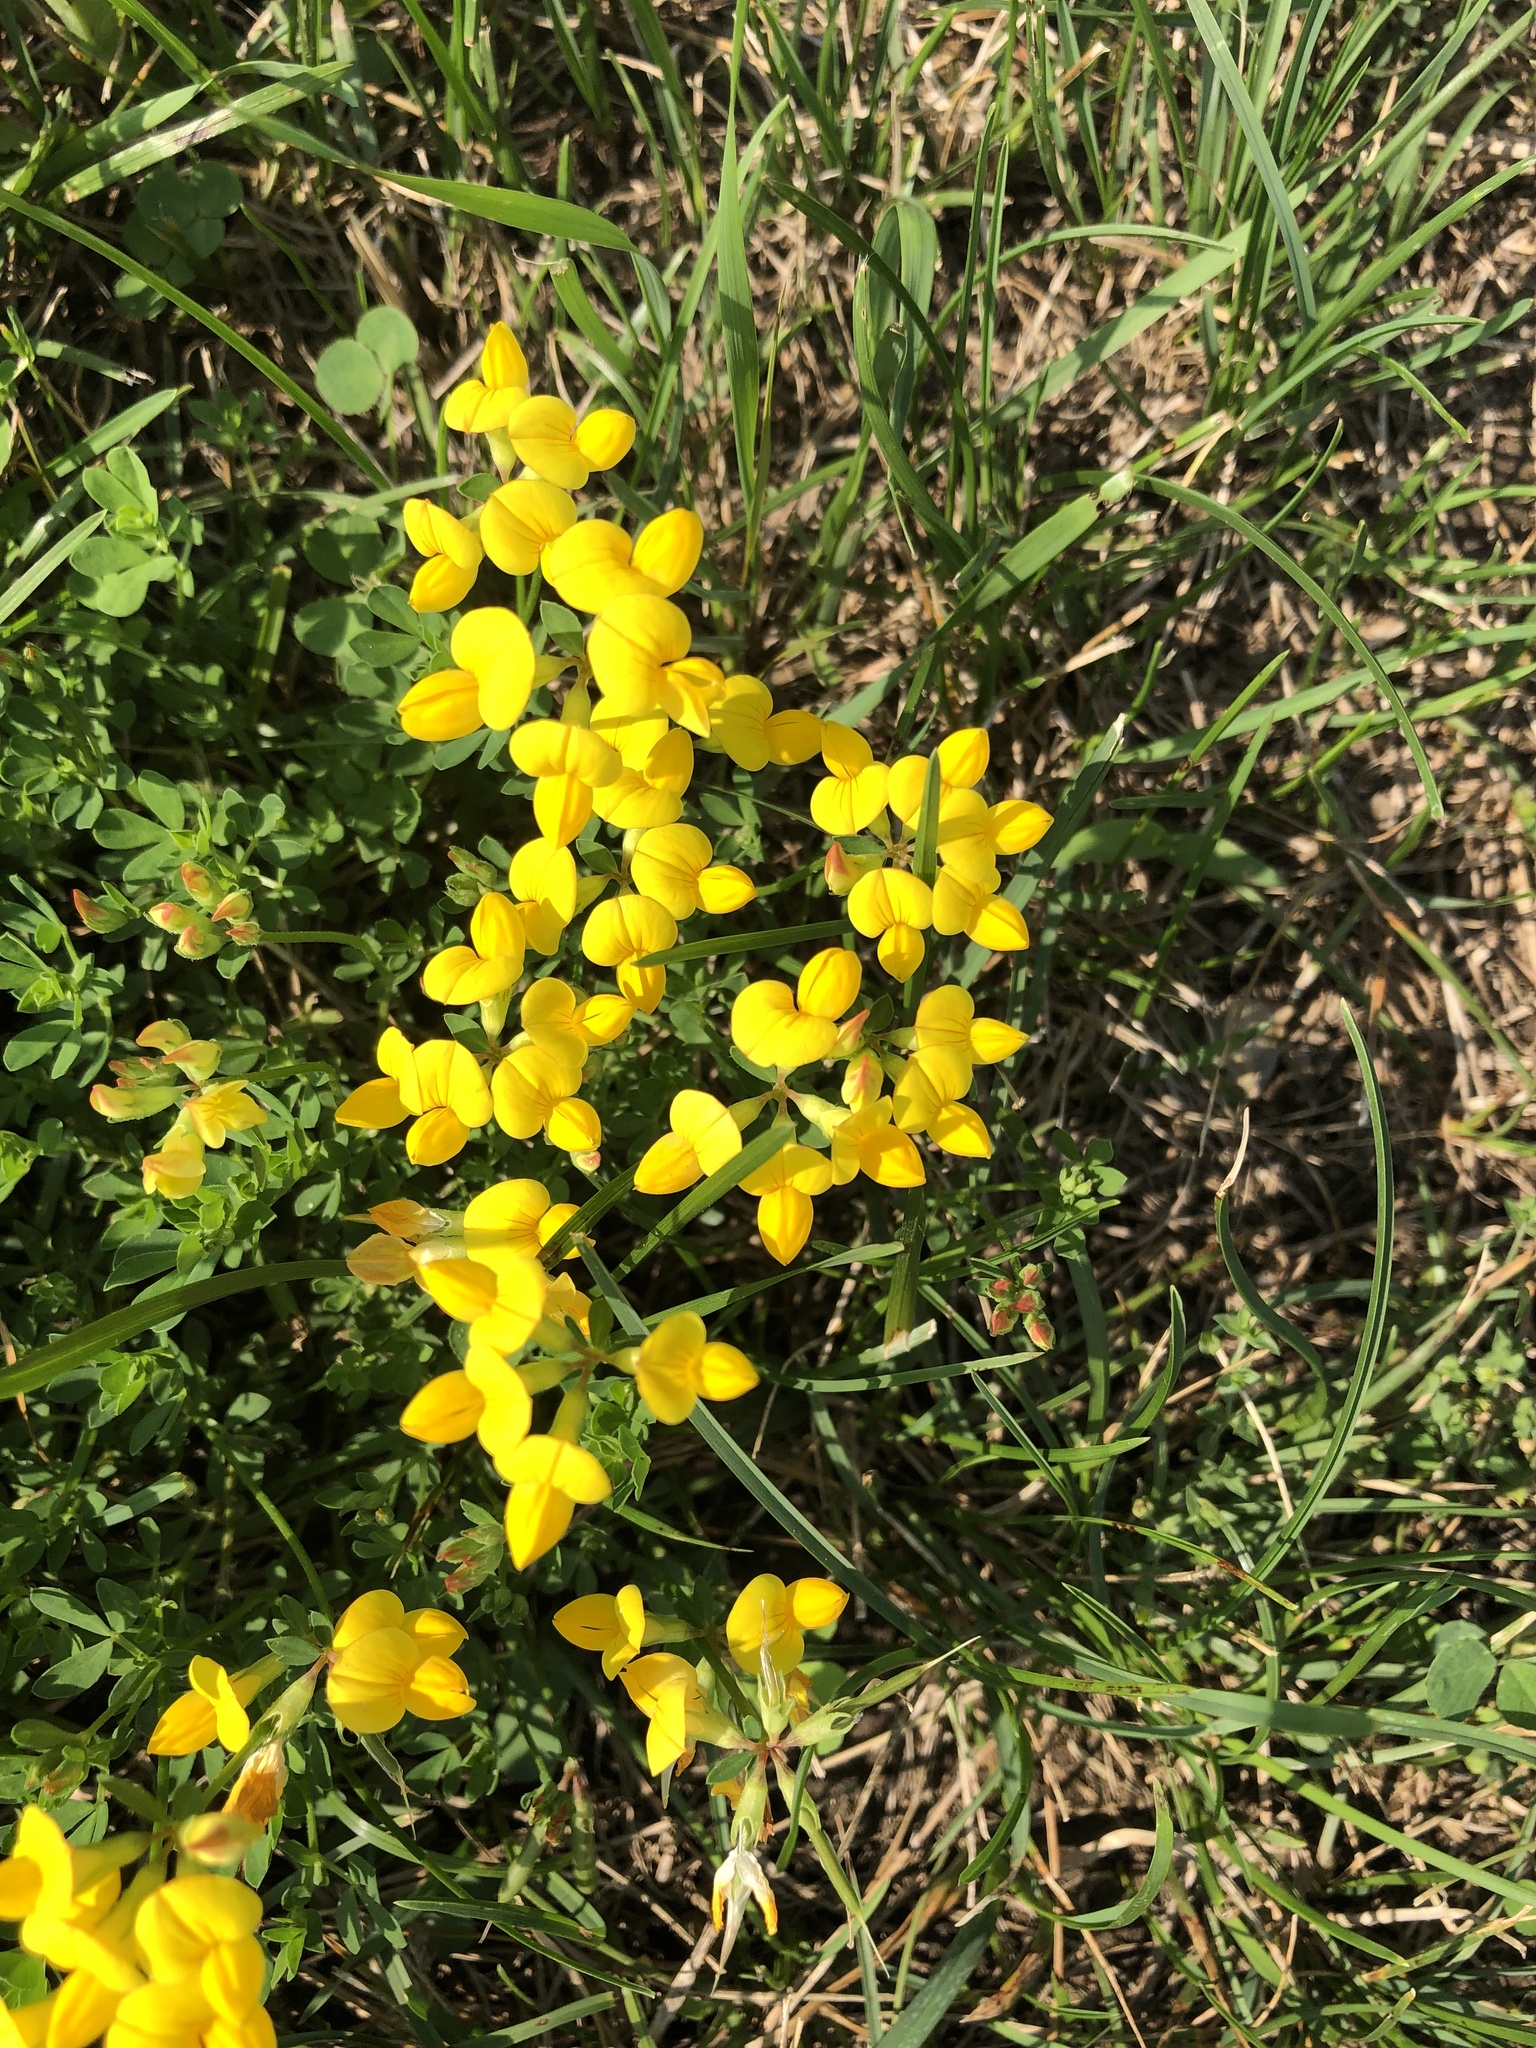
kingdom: Plantae
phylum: Tracheophyta
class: Magnoliopsida
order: Fabales
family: Fabaceae
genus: Lotus
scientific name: Lotus corniculatus
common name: Common bird's-foot-trefoil
